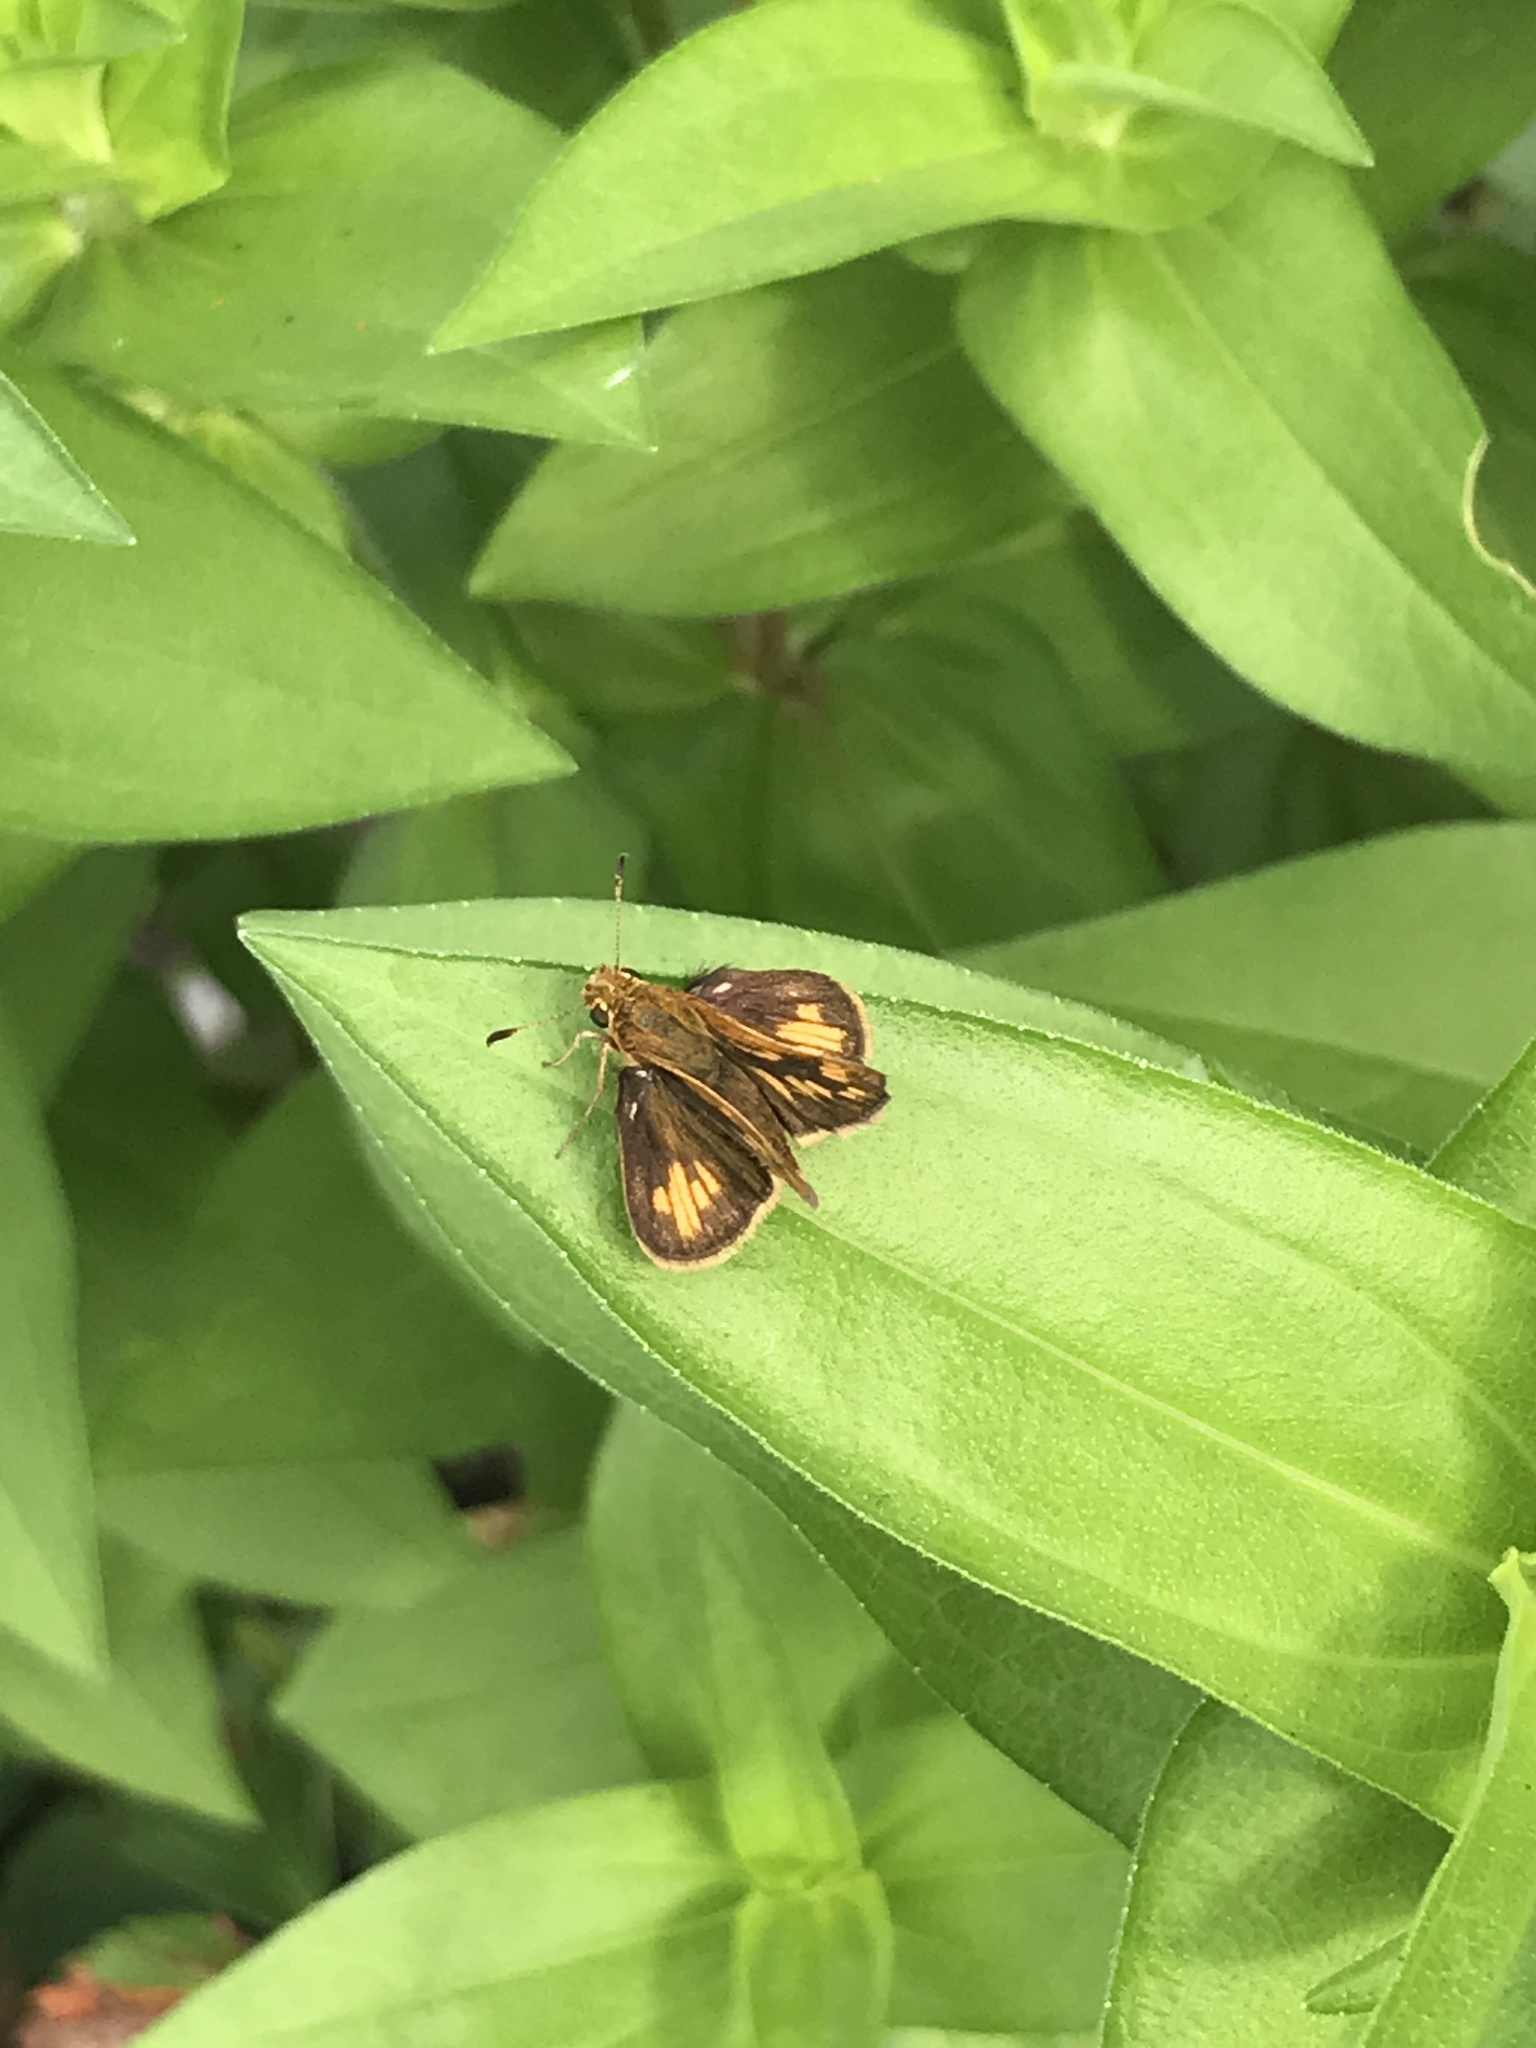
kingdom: Animalia
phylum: Arthropoda
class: Insecta
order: Lepidoptera
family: Hesperiidae
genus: Polites
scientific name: Polites coras
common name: Peck's skipper
